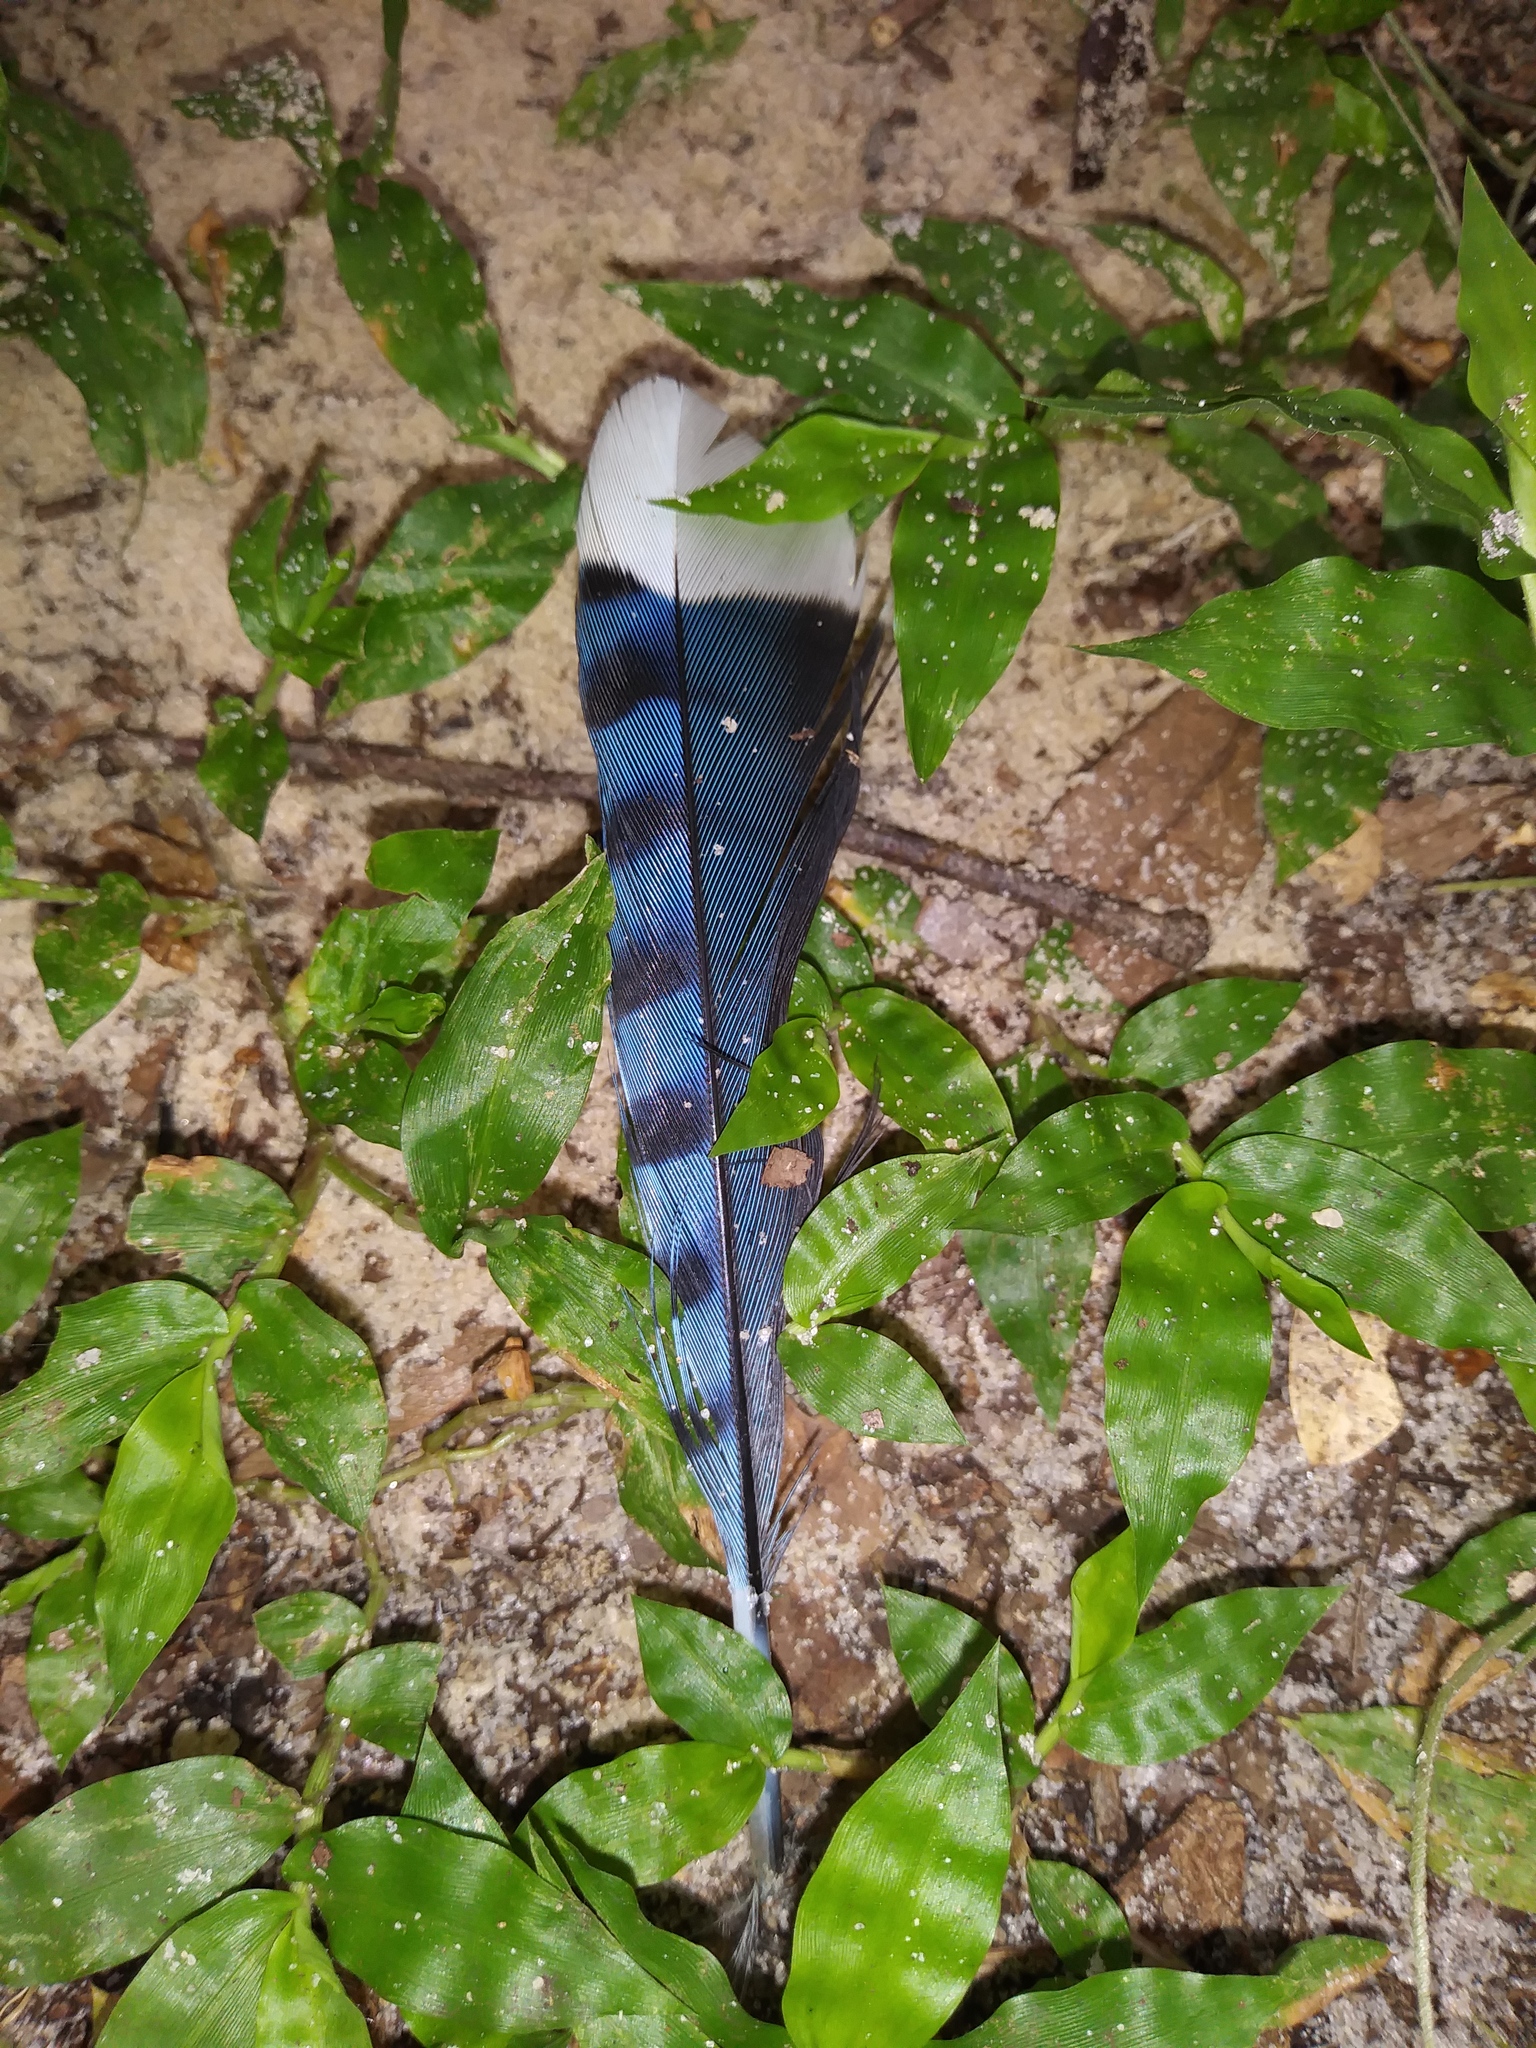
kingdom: Animalia
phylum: Chordata
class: Aves
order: Passeriformes
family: Corvidae
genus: Cyanocitta
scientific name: Cyanocitta cristata
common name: Blue jay
